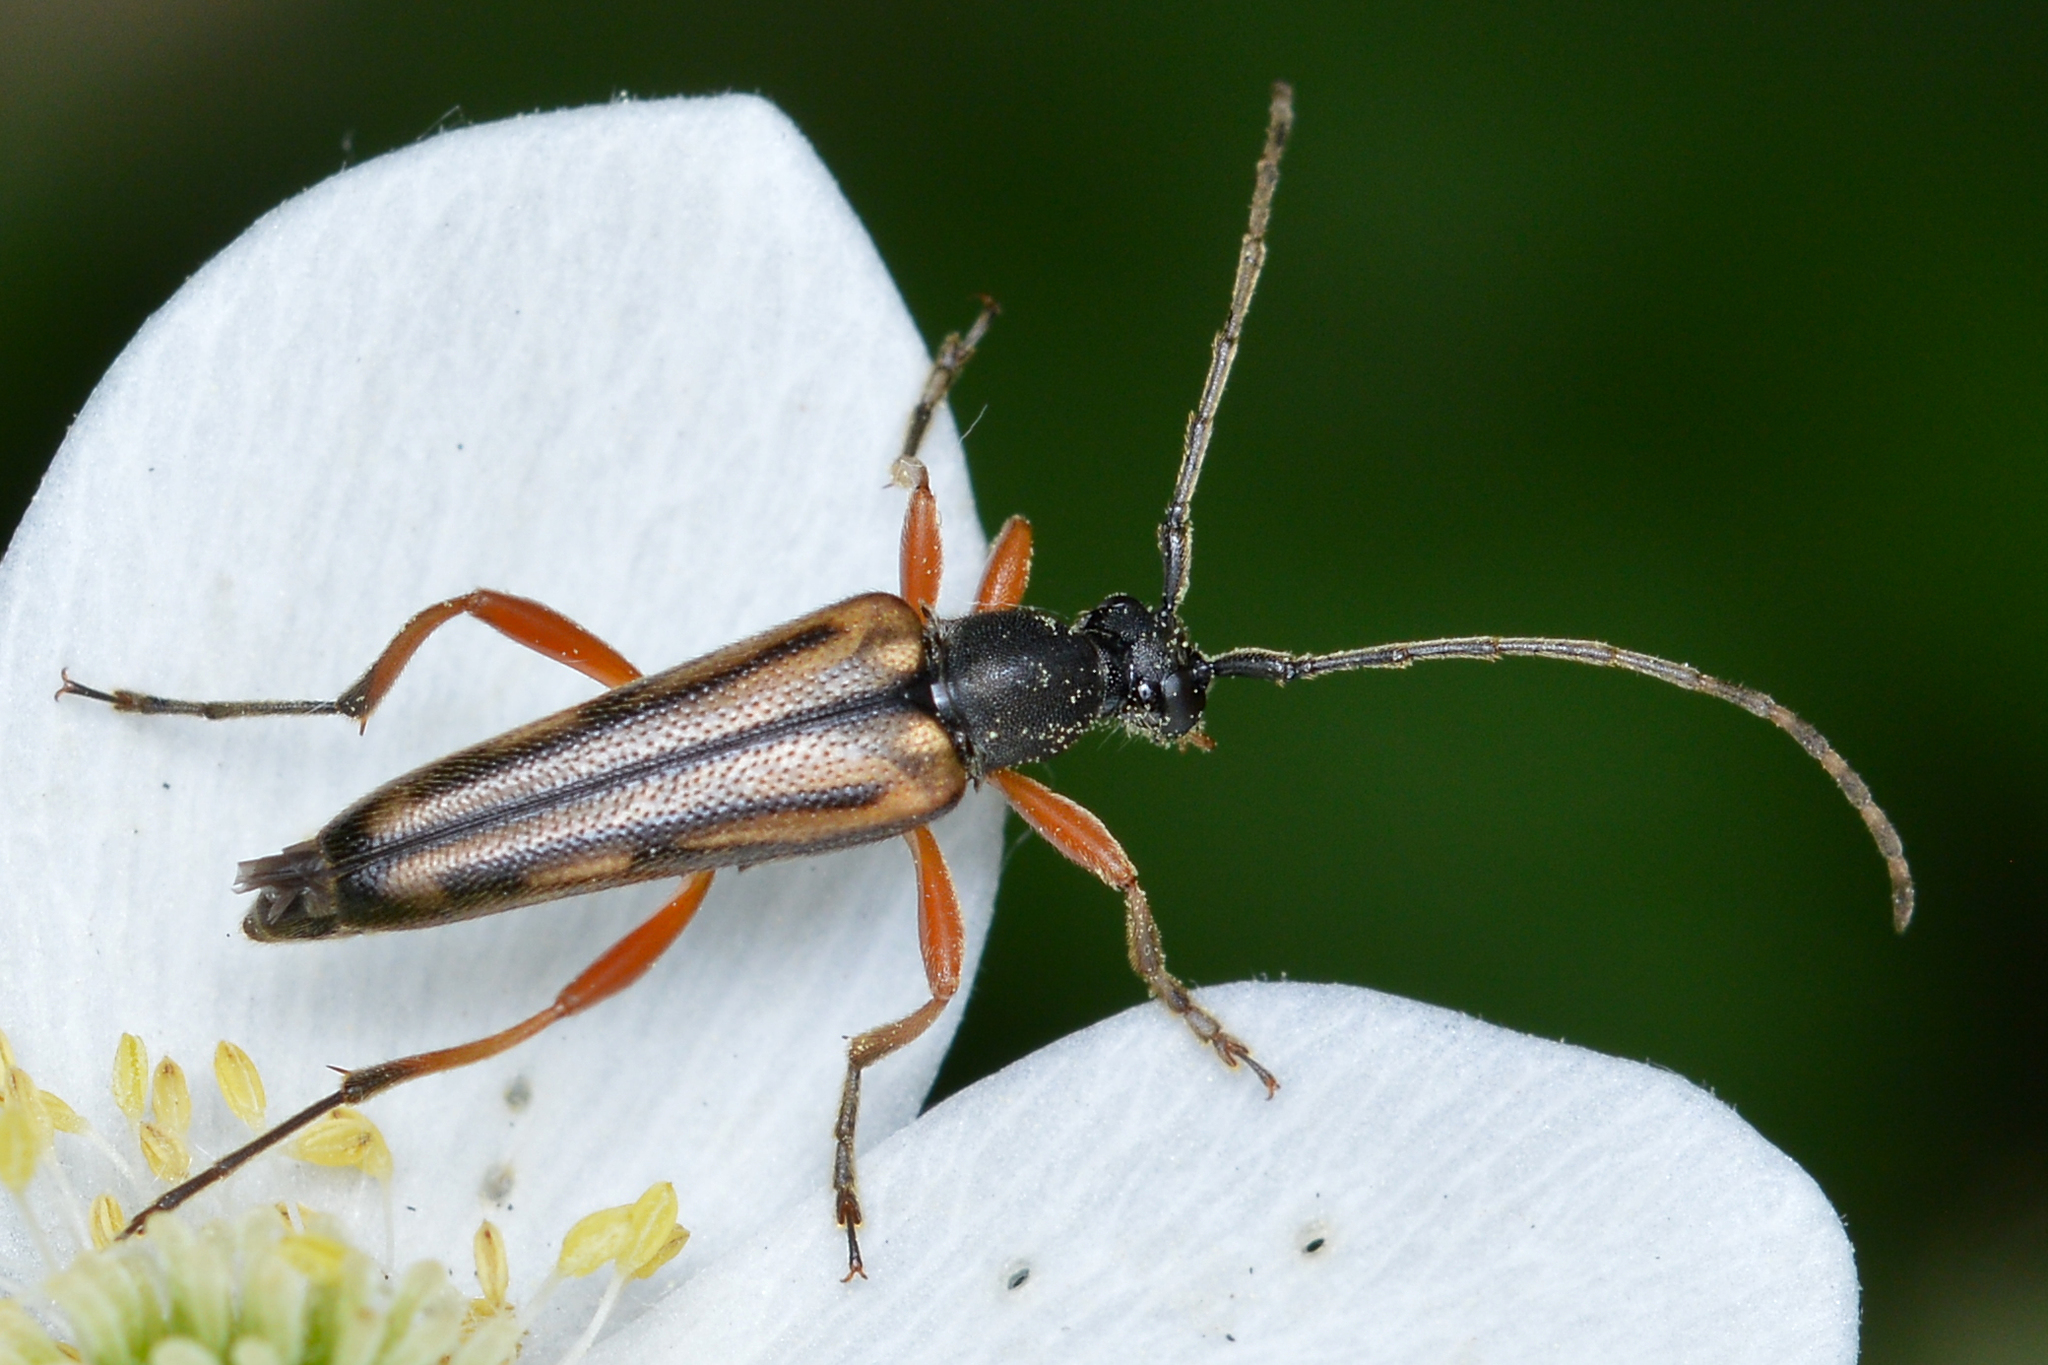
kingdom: Animalia
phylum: Arthropoda
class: Insecta
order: Coleoptera
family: Cerambycidae
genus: Analeptura
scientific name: Analeptura lineola
